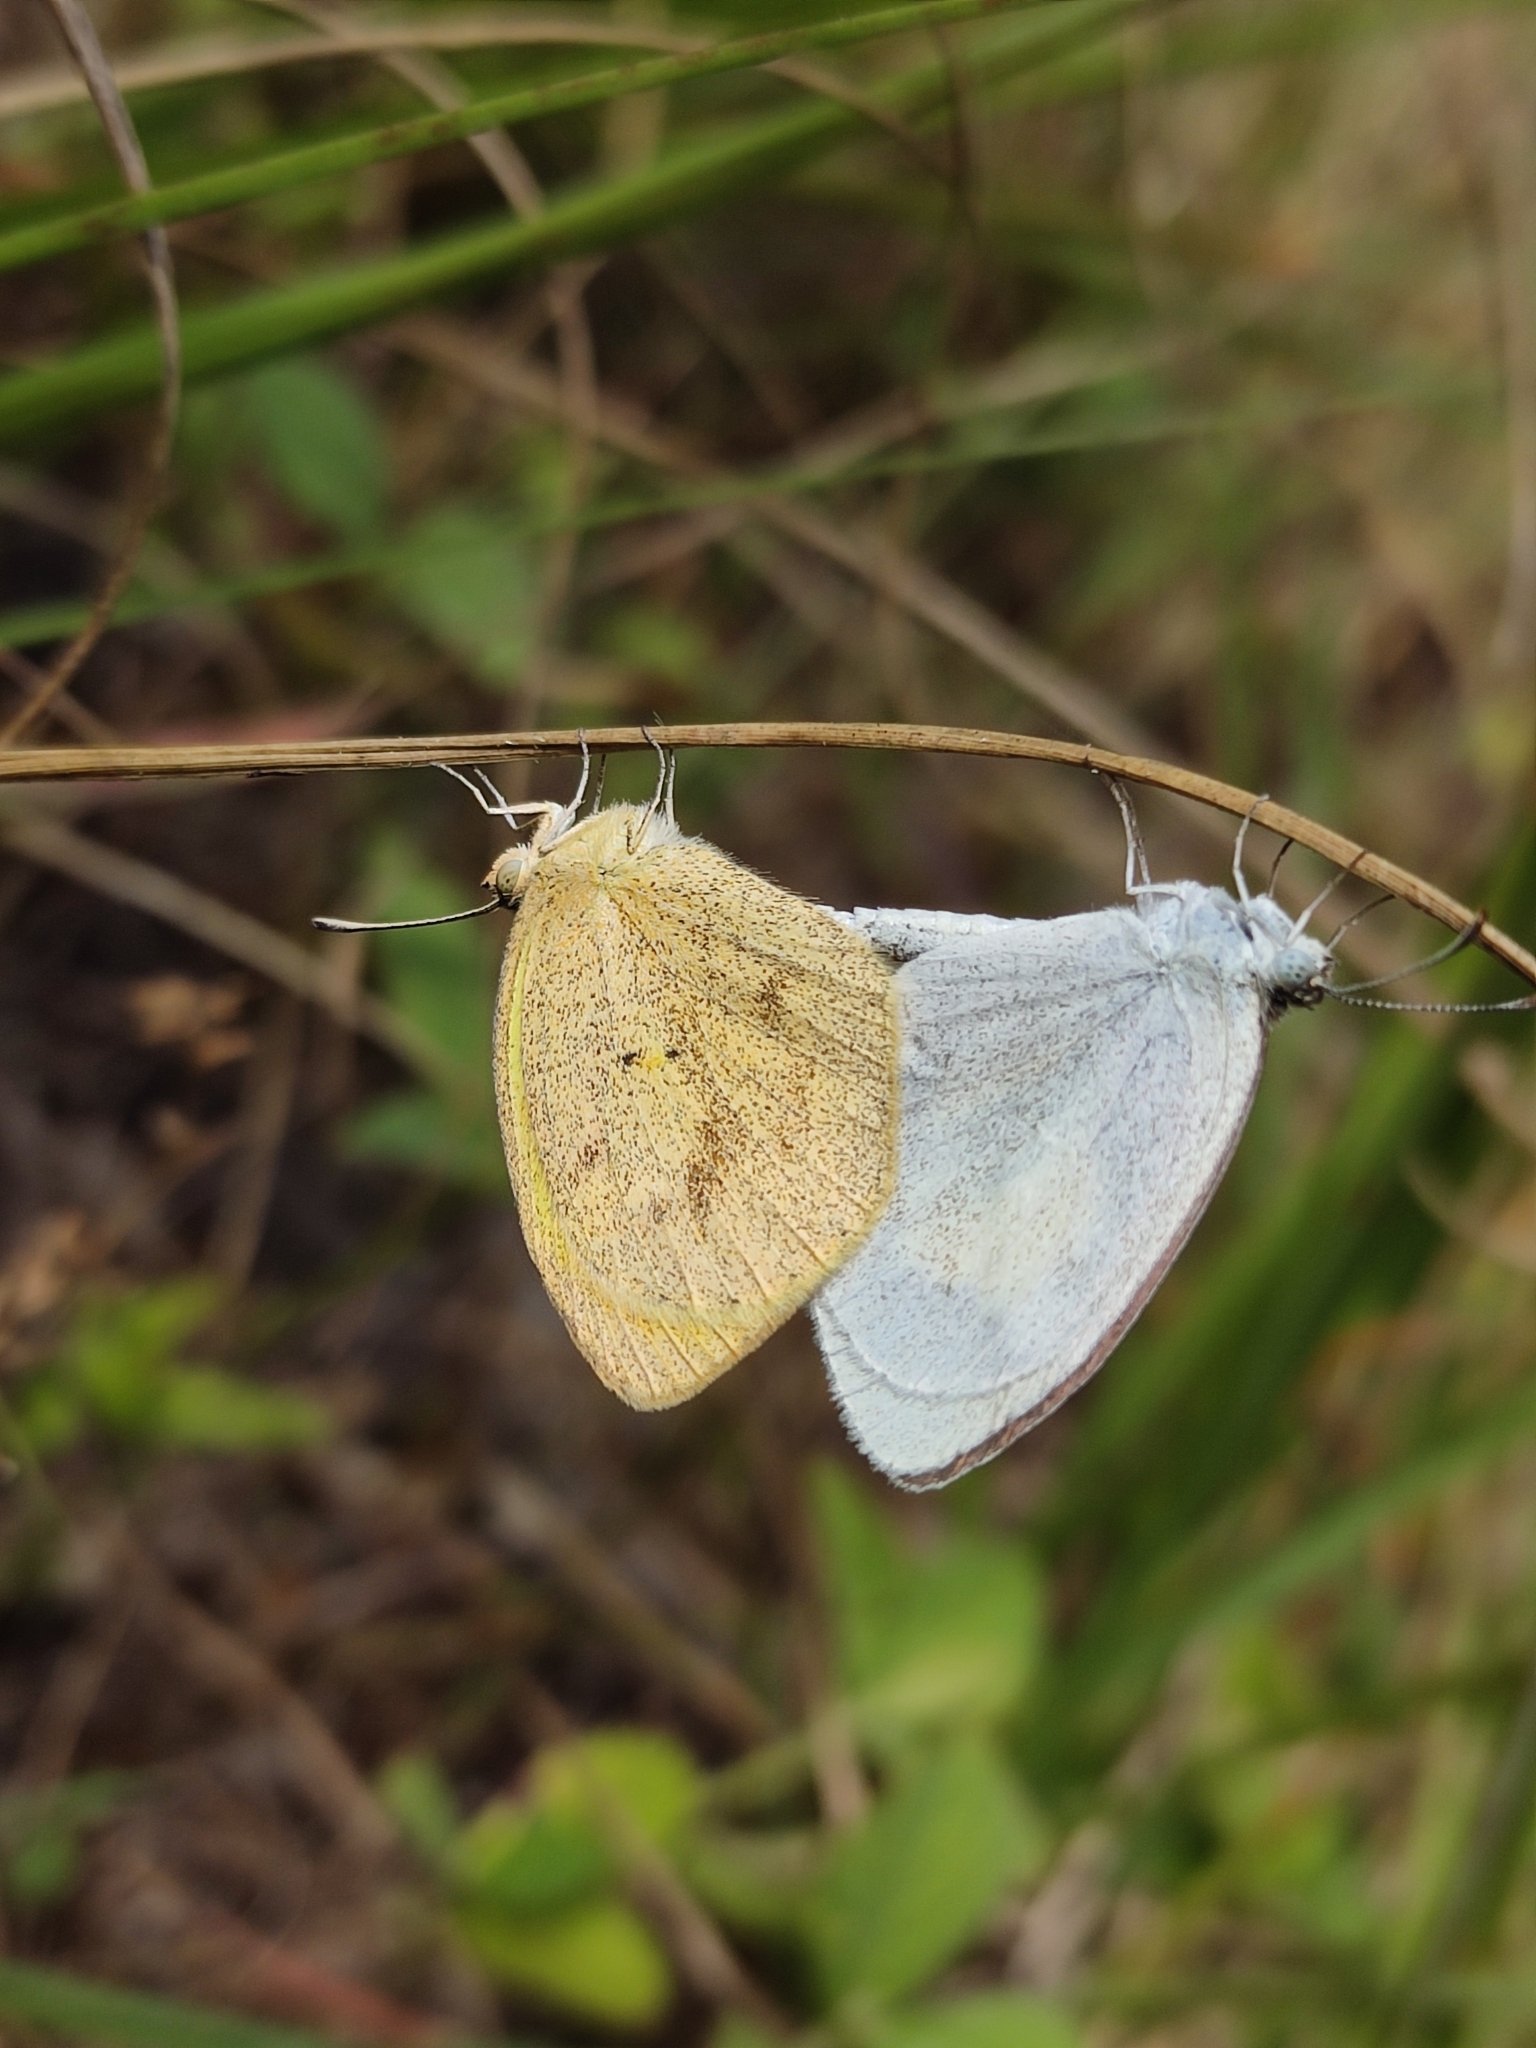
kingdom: Animalia
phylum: Arthropoda
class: Insecta
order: Lepidoptera
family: Pieridae
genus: Eurema
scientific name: Eurema daira
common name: Barred sulphur
